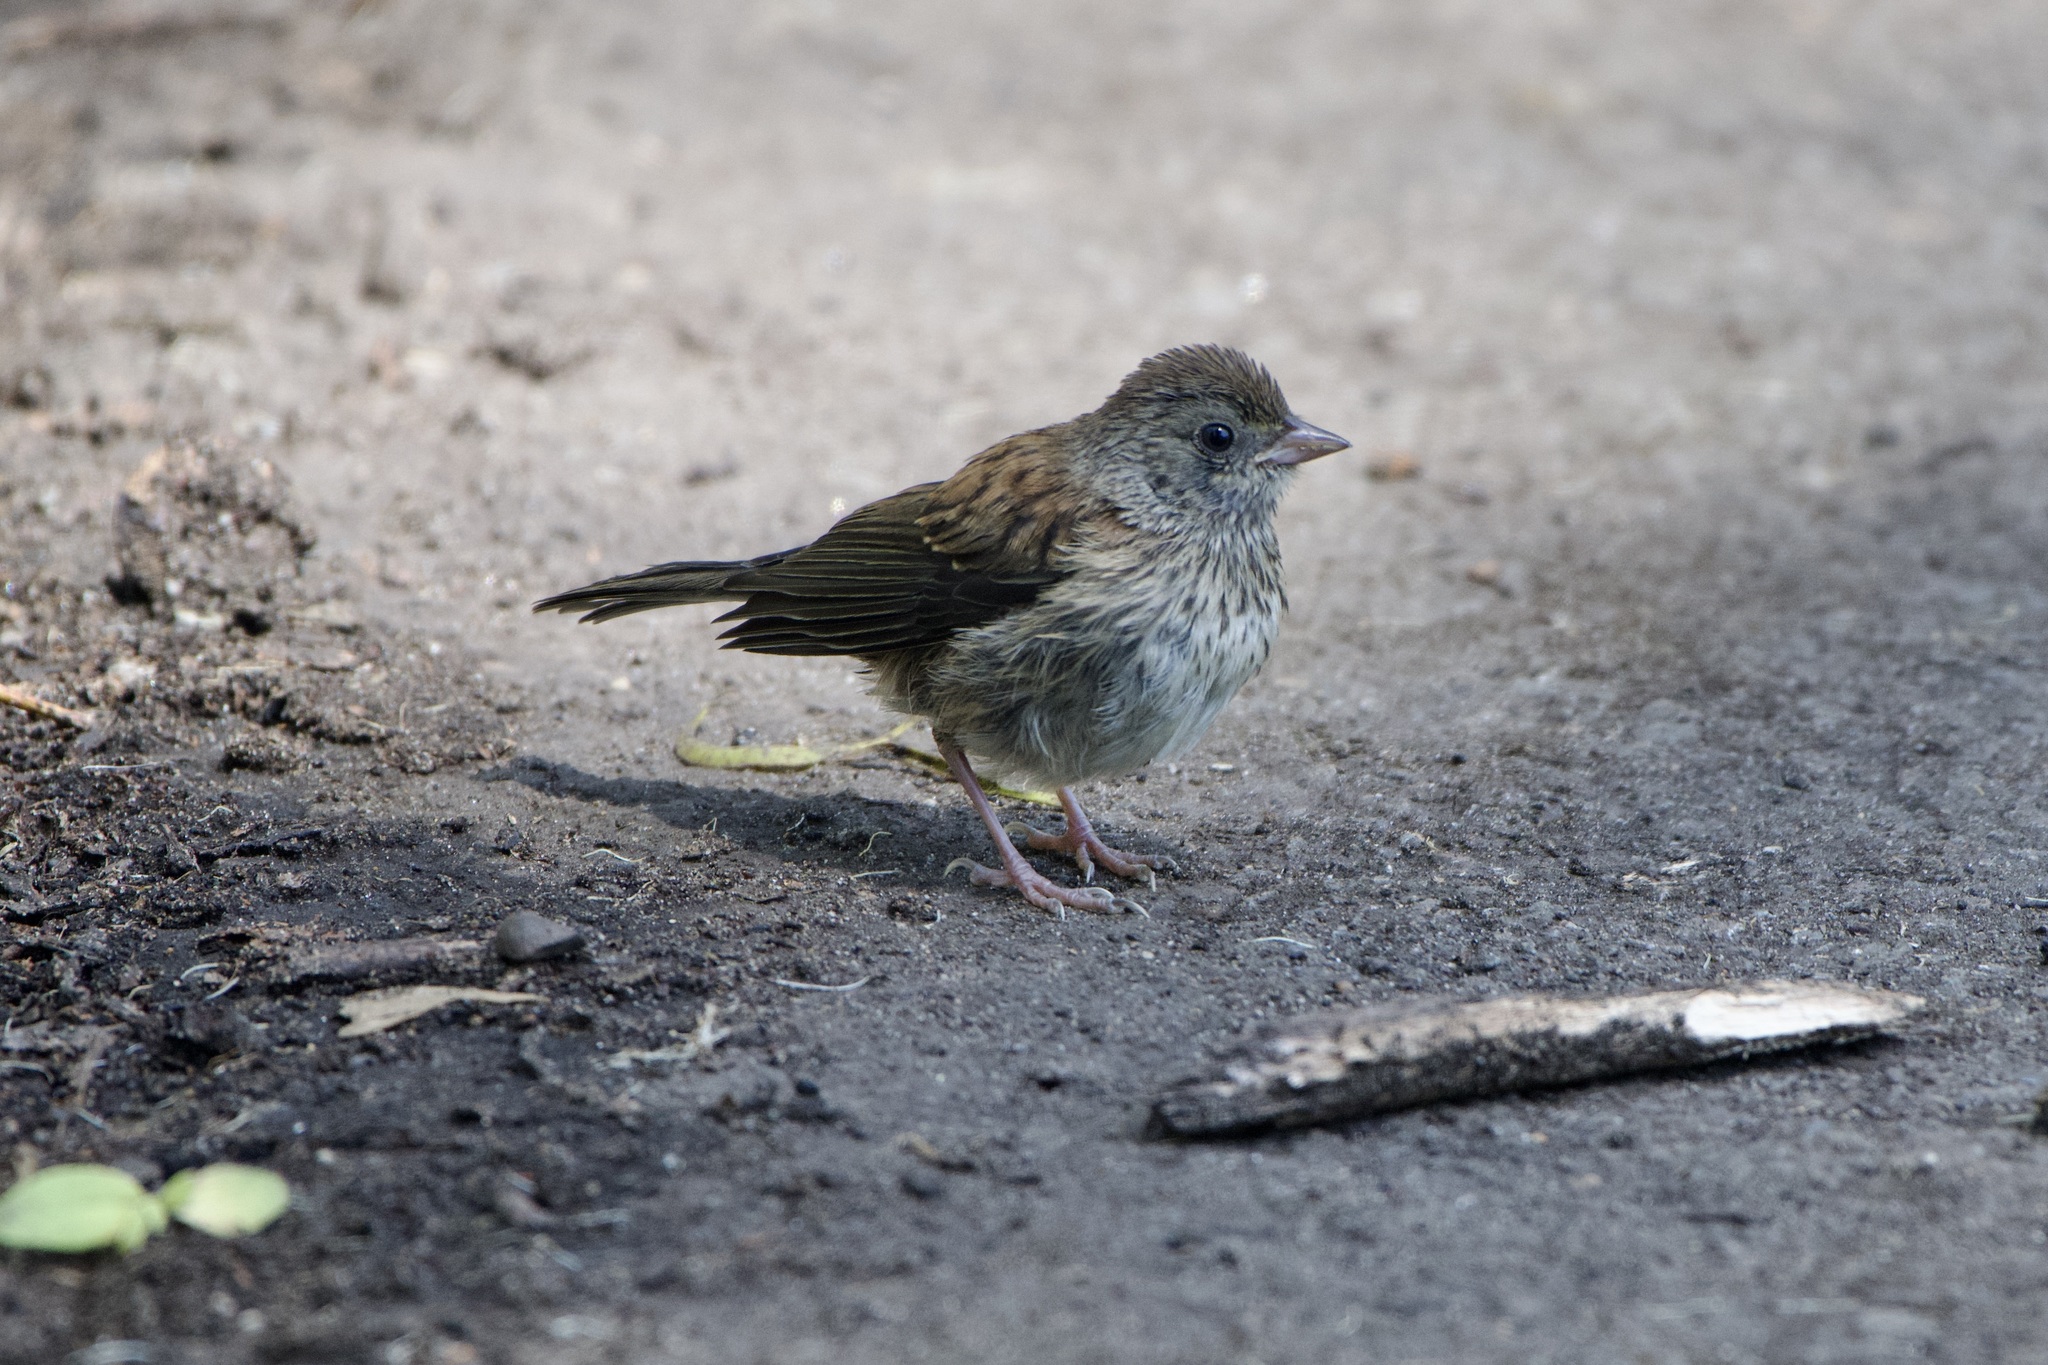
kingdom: Animalia
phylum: Chordata
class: Aves
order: Passeriformes
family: Passerellidae
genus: Junco
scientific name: Junco hyemalis
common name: Dark-eyed junco
